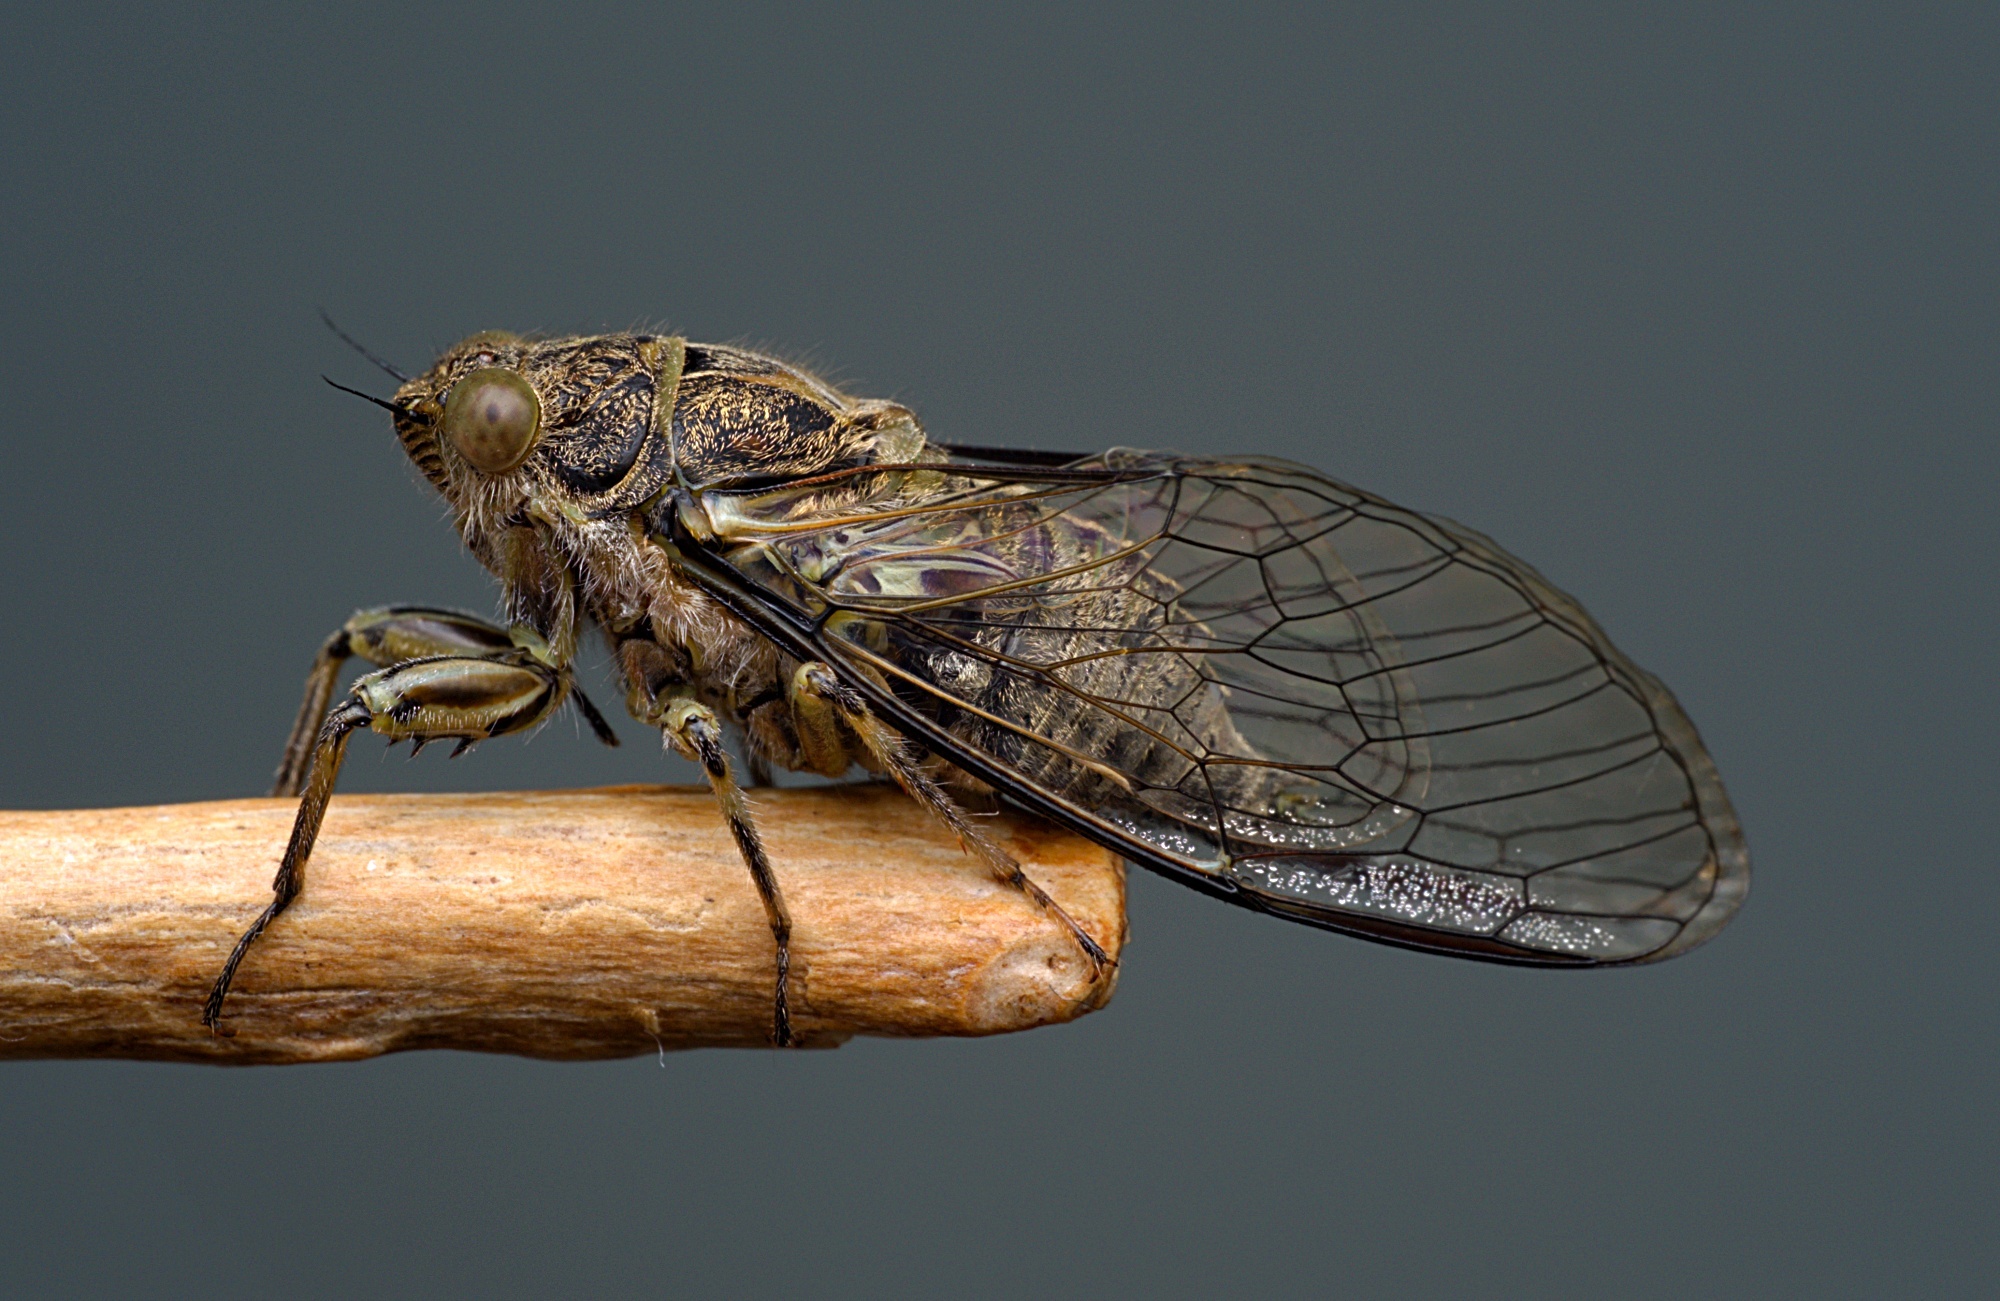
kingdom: Animalia
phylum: Arthropoda
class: Insecta
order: Hemiptera
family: Cicadidae
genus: Notopsalta
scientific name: Notopsalta sericea
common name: Clay bank cicada
